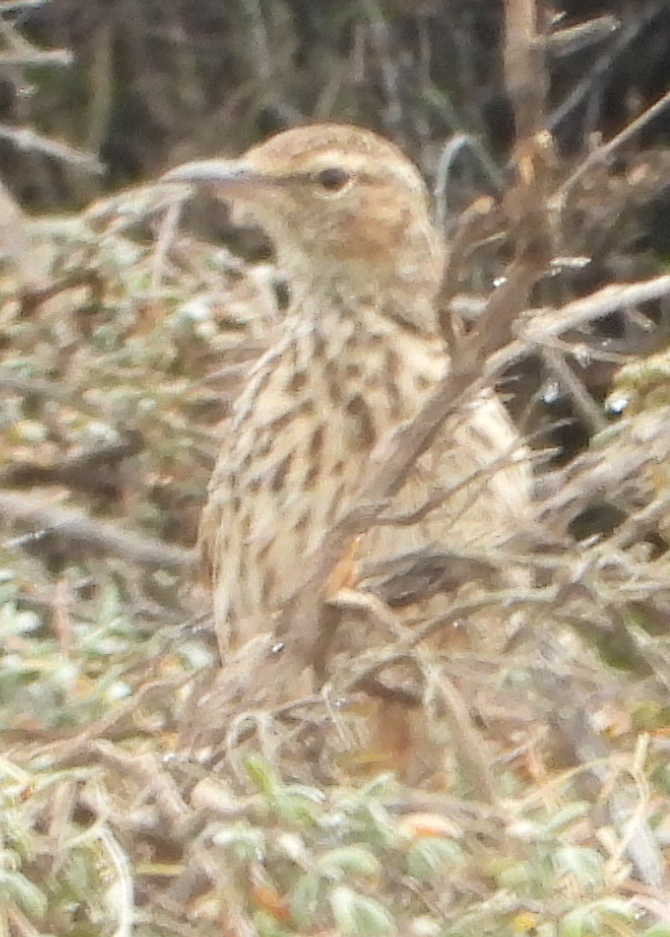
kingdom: Animalia
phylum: Chordata
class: Aves
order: Passeriformes
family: Alaudidae
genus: Certhilauda
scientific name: Certhilauda curvirostris
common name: Cape long-billed lark
